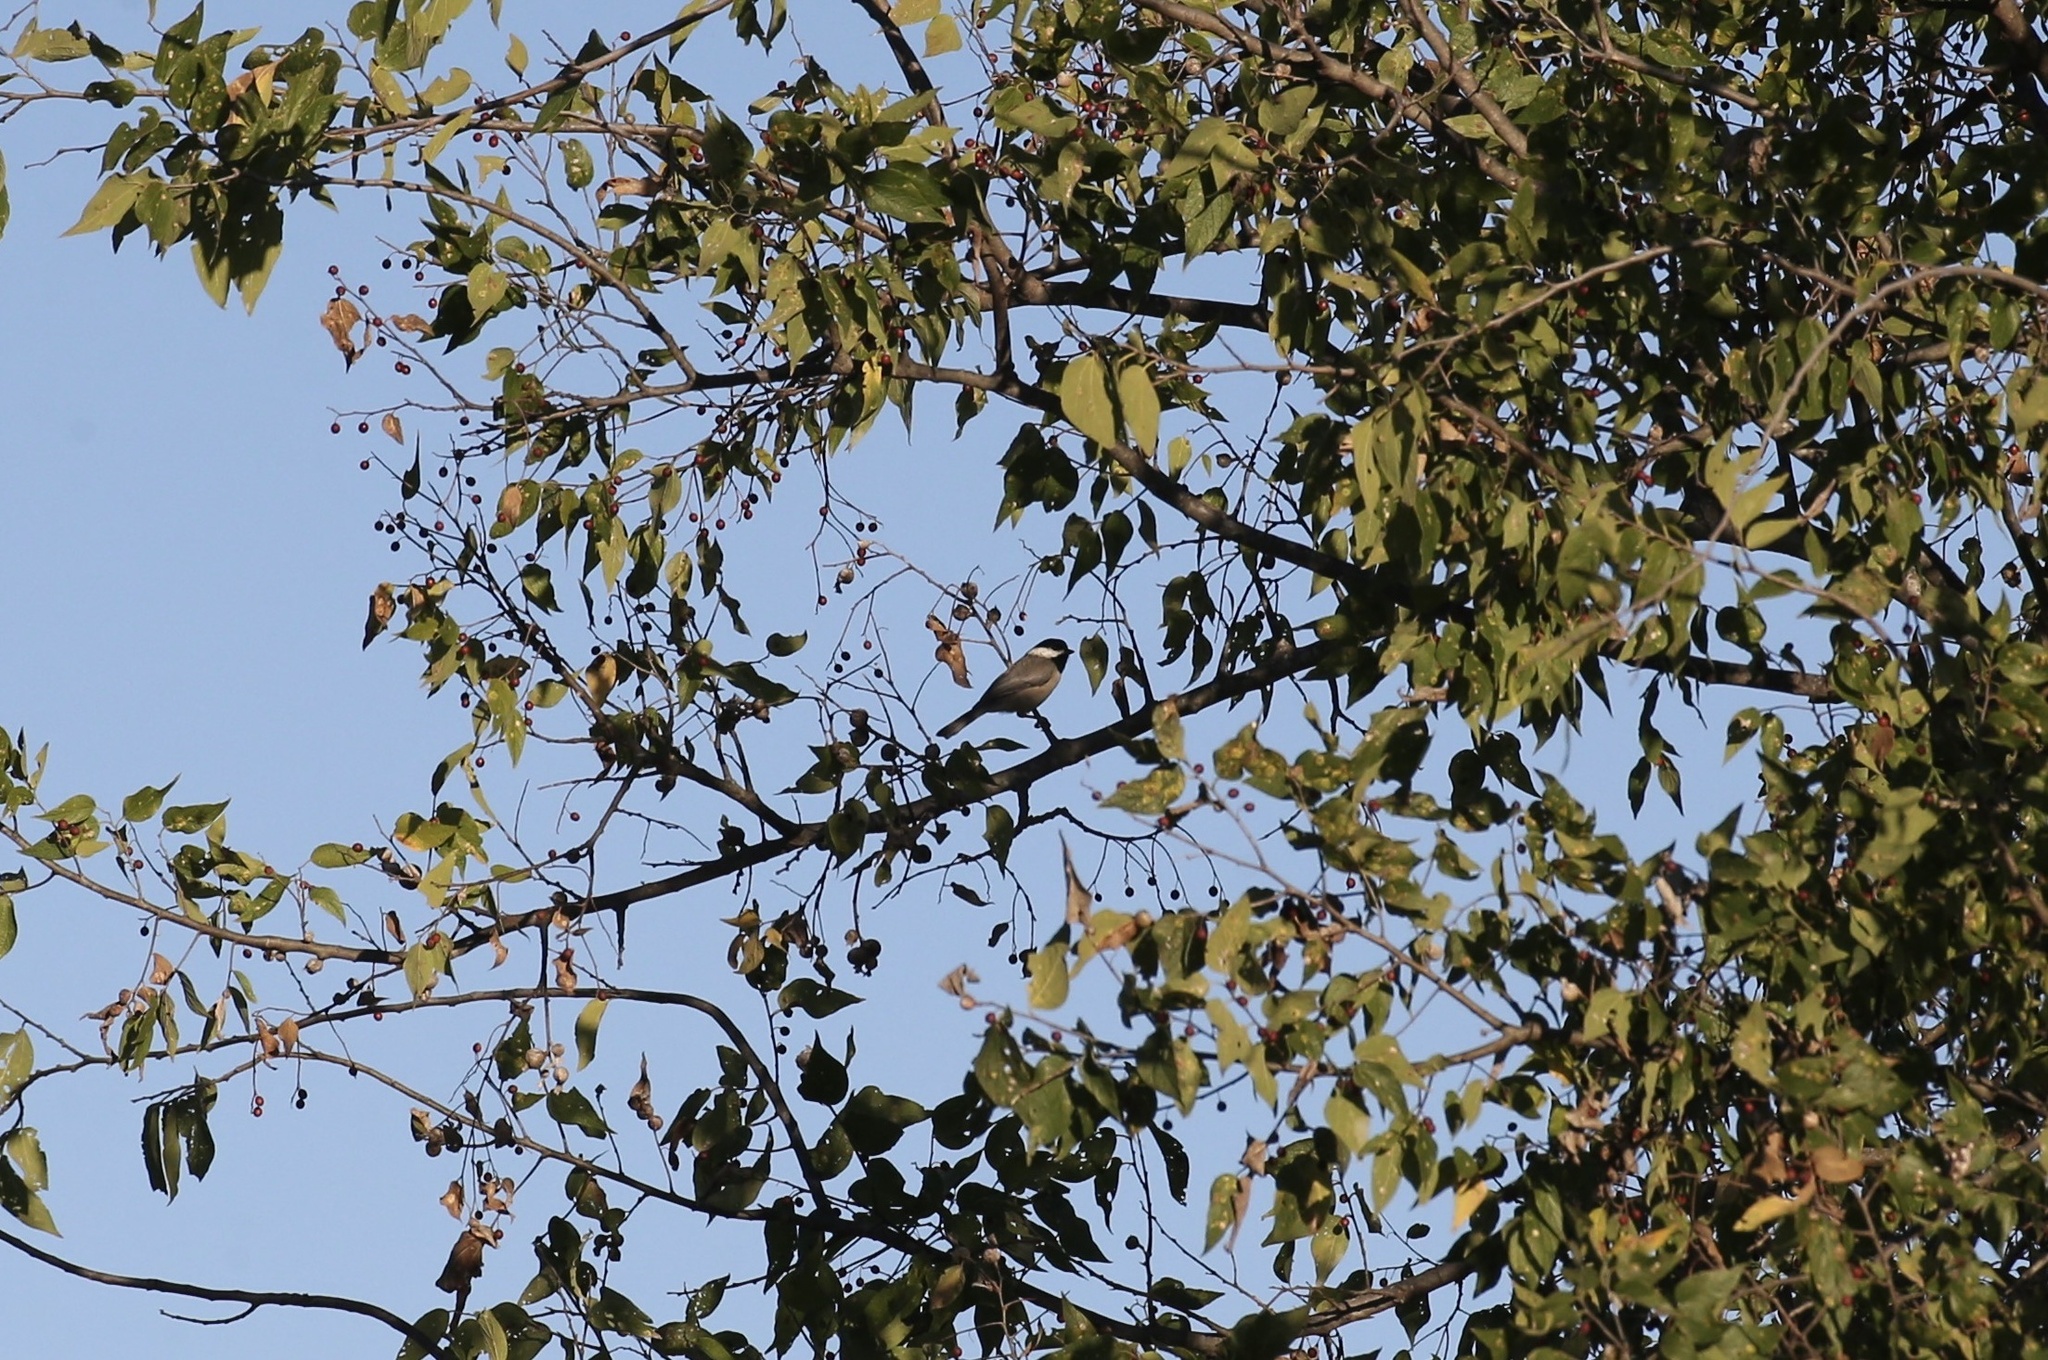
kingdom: Animalia
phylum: Chordata
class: Aves
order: Passeriformes
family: Paridae
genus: Poecile
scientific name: Poecile carolinensis
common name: Carolina chickadee
